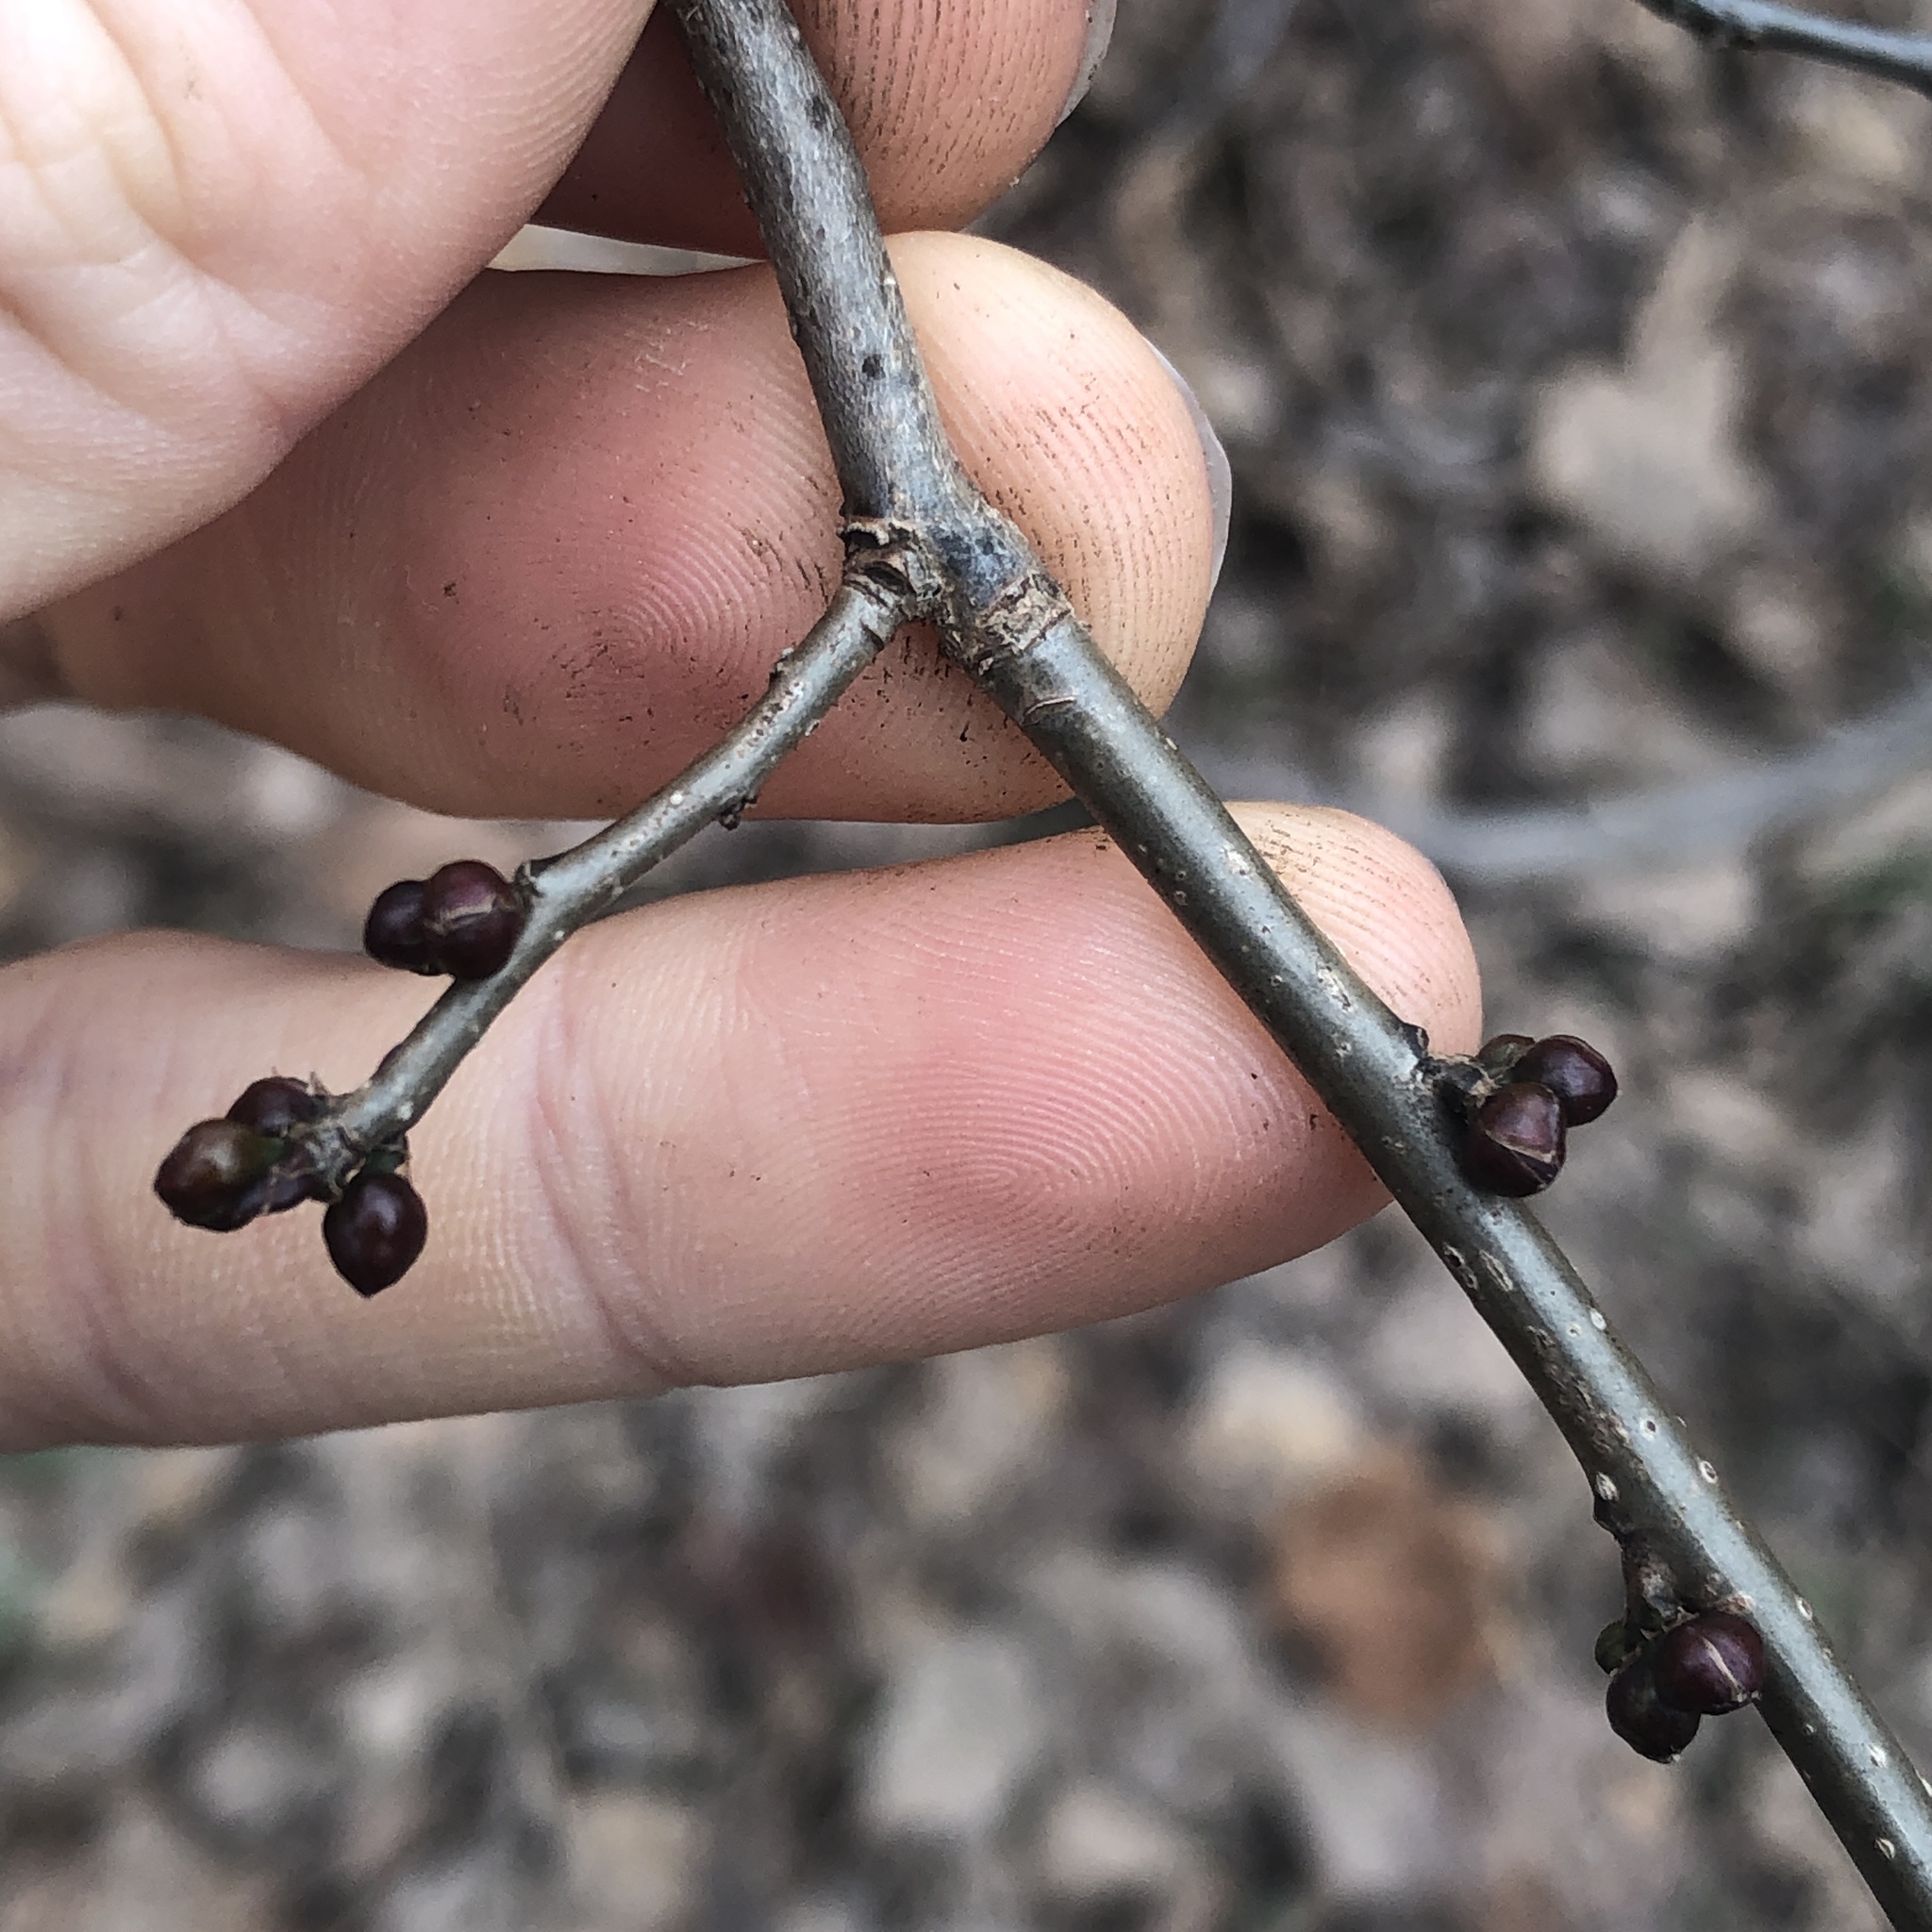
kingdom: Plantae
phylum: Tracheophyta
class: Magnoliopsida
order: Laurales
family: Lauraceae
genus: Lindera
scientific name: Lindera benzoin
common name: Spicebush
